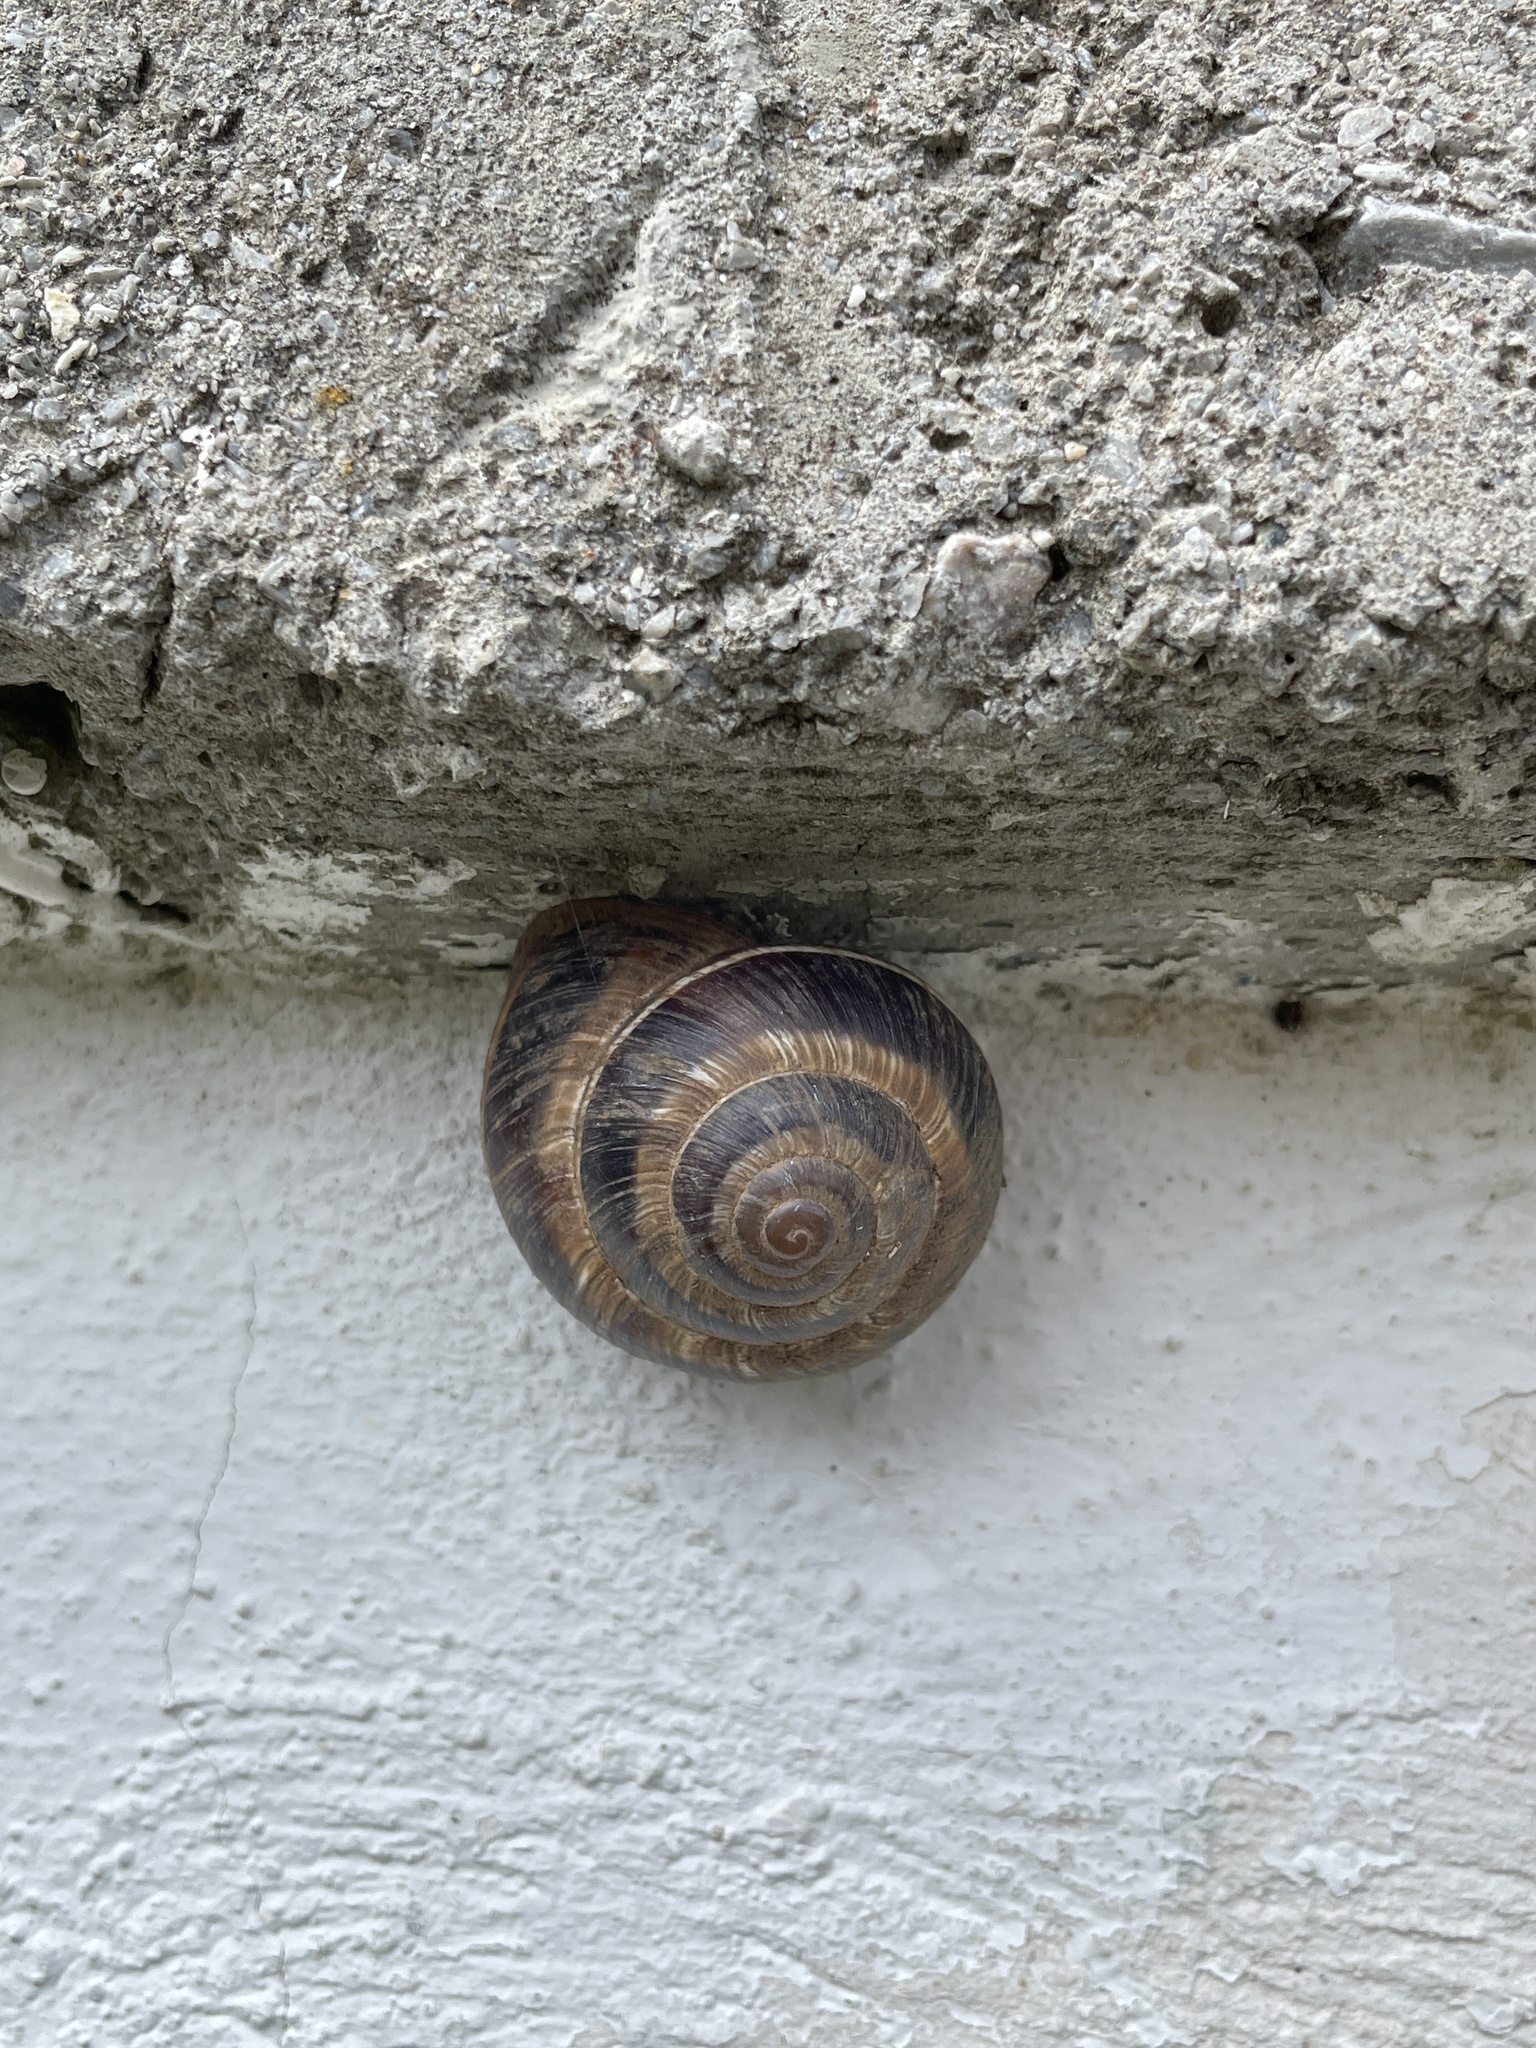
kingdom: Animalia
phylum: Mollusca
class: Gastropoda
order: Stylommatophora
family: Helicidae
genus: Helix
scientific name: Helix lucorum
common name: Turkish snail
